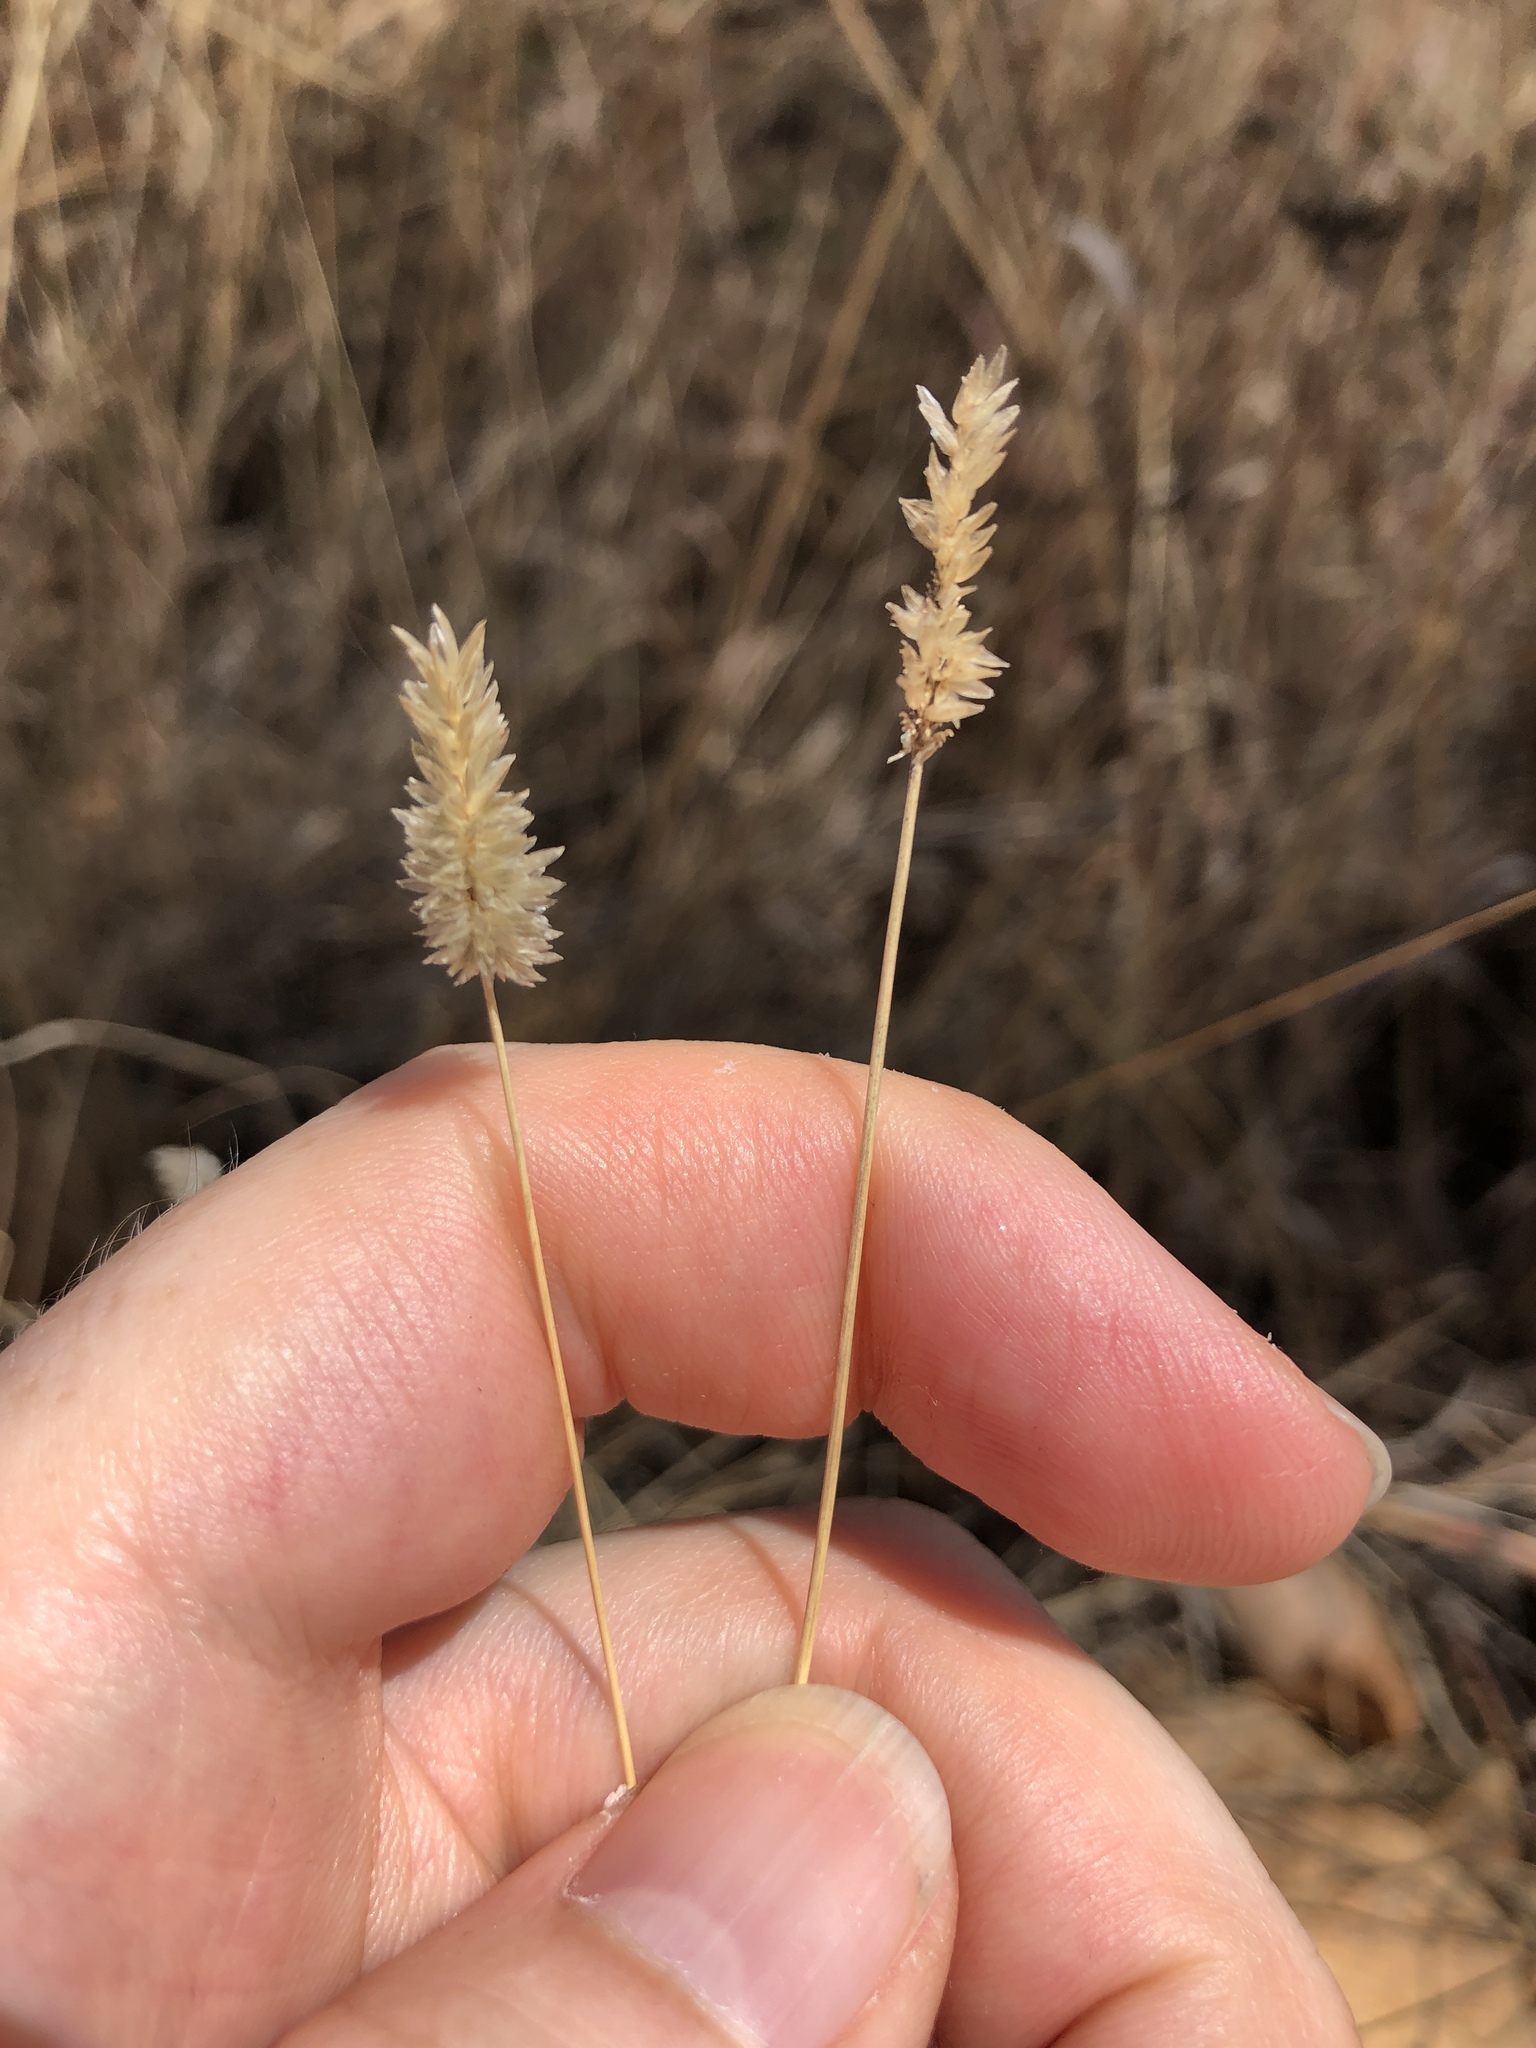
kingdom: Plantae
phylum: Tracheophyta
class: Liliopsida
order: Poales
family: Poaceae
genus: Enneapogon
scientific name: Enneapogon lindleyanus
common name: Conetop nineawn
